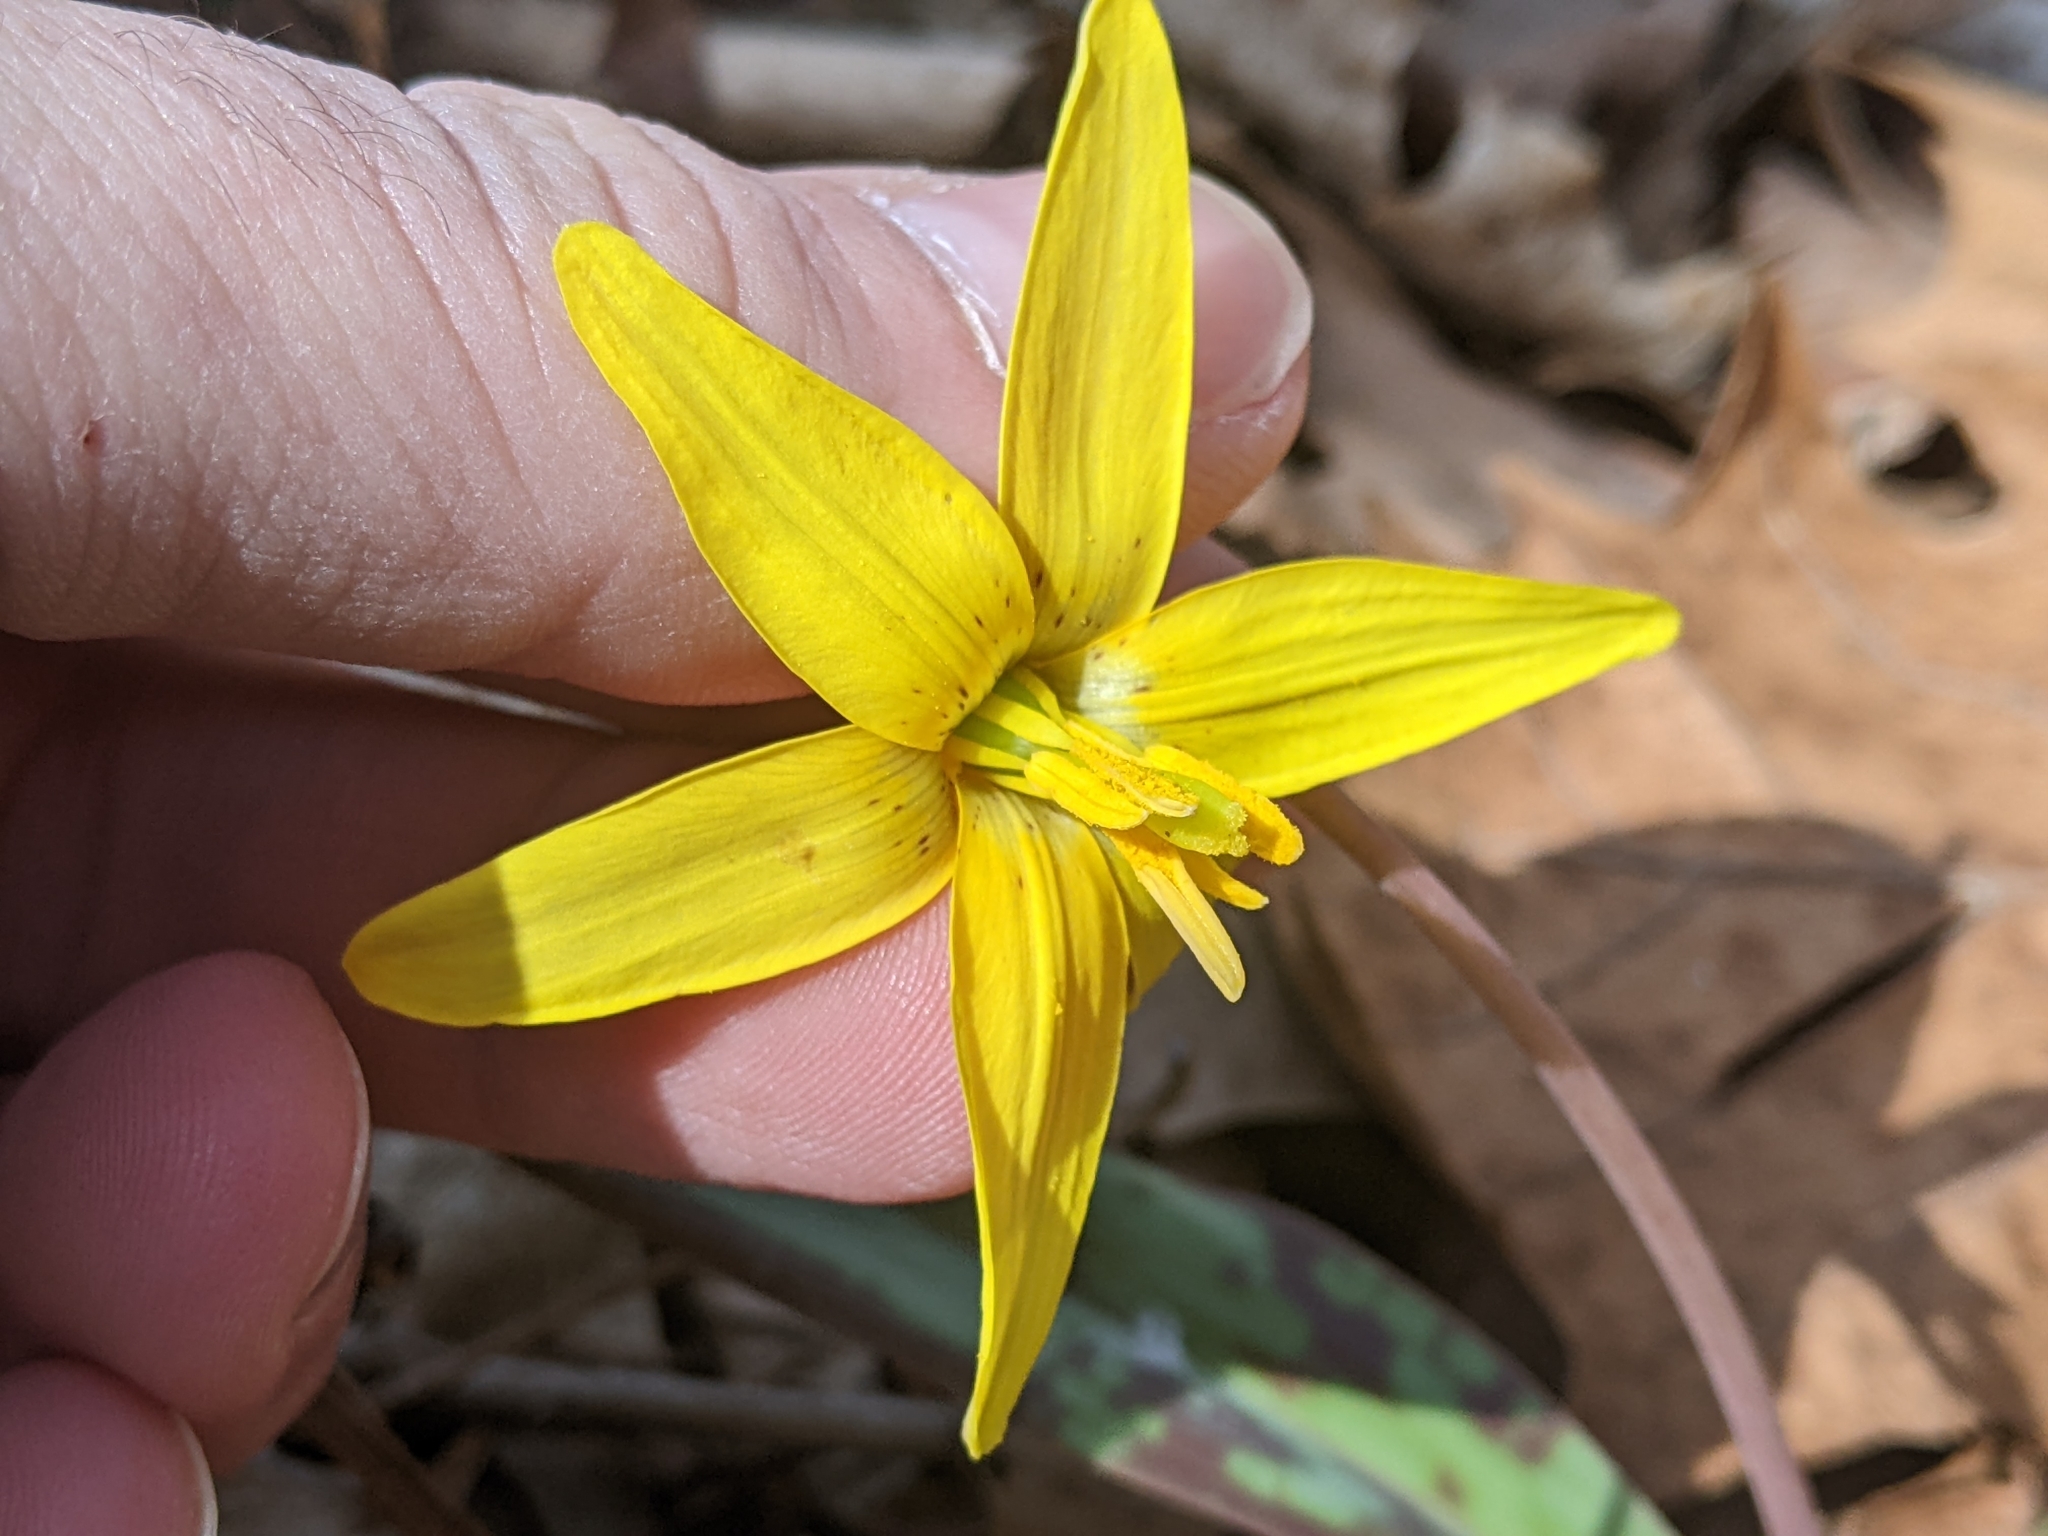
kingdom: Plantae
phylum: Tracheophyta
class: Liliopsida
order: Liliales
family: Liliaceae
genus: Erythronium
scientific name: Erythronium americanum
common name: Yellow adder's-tongue
